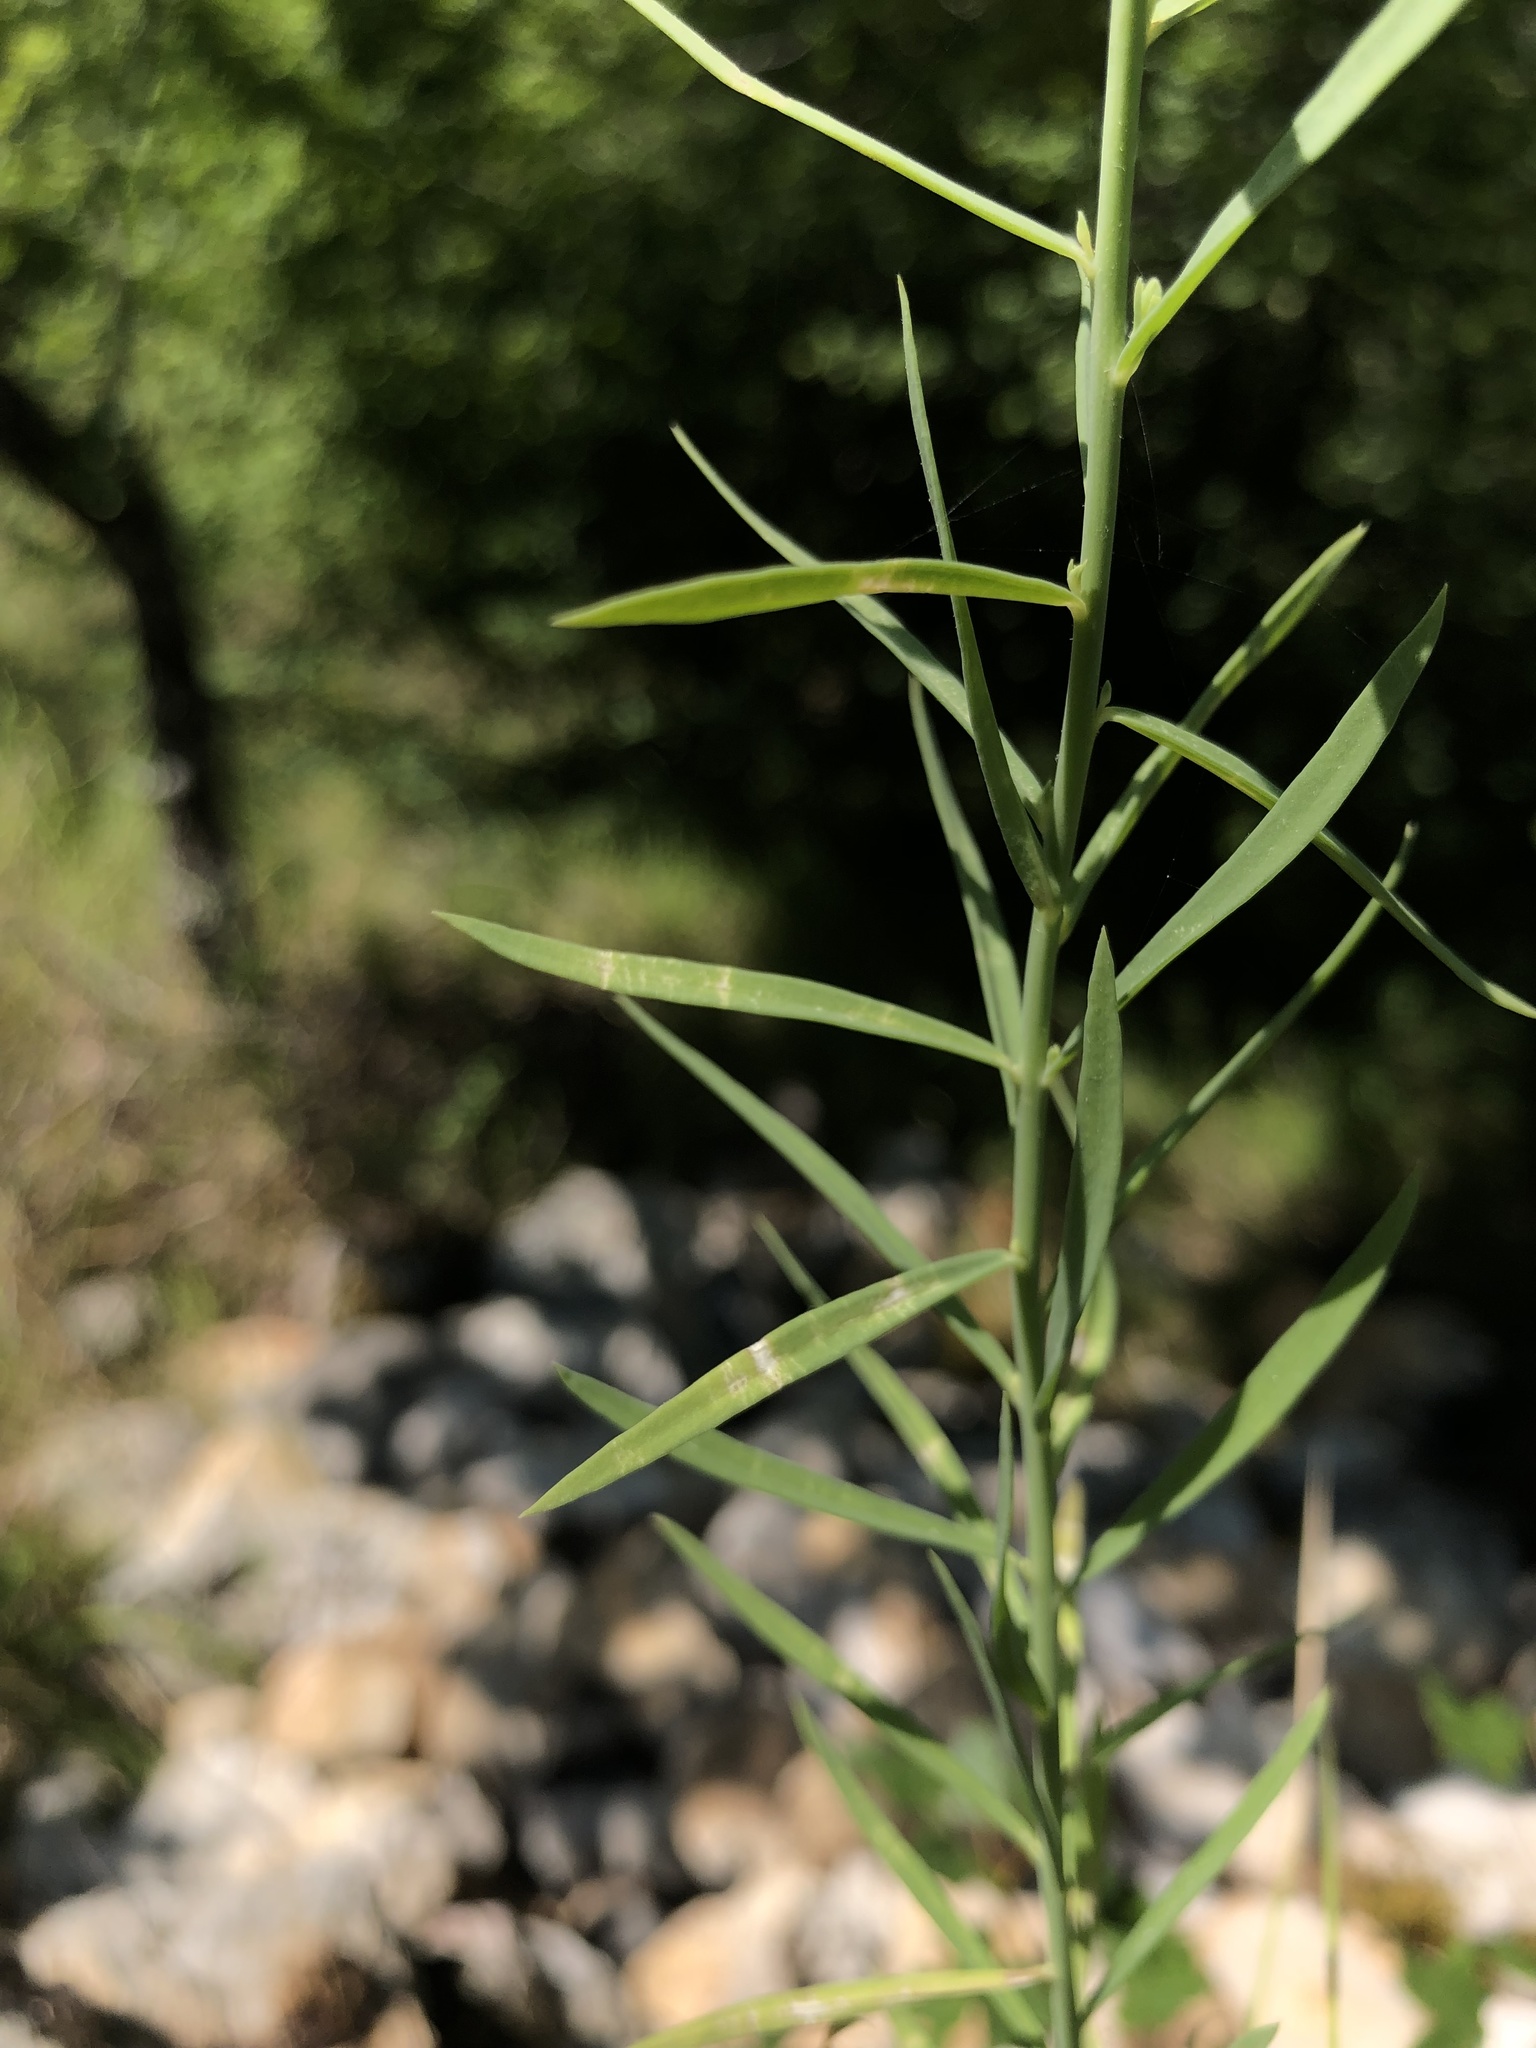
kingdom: Plantae
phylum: Tracheophyta
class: Magnoliopsida
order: Lamiales
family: Plantaginaceae
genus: Linaria
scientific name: Linaria dalmatica
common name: Dalmatian toadflax
